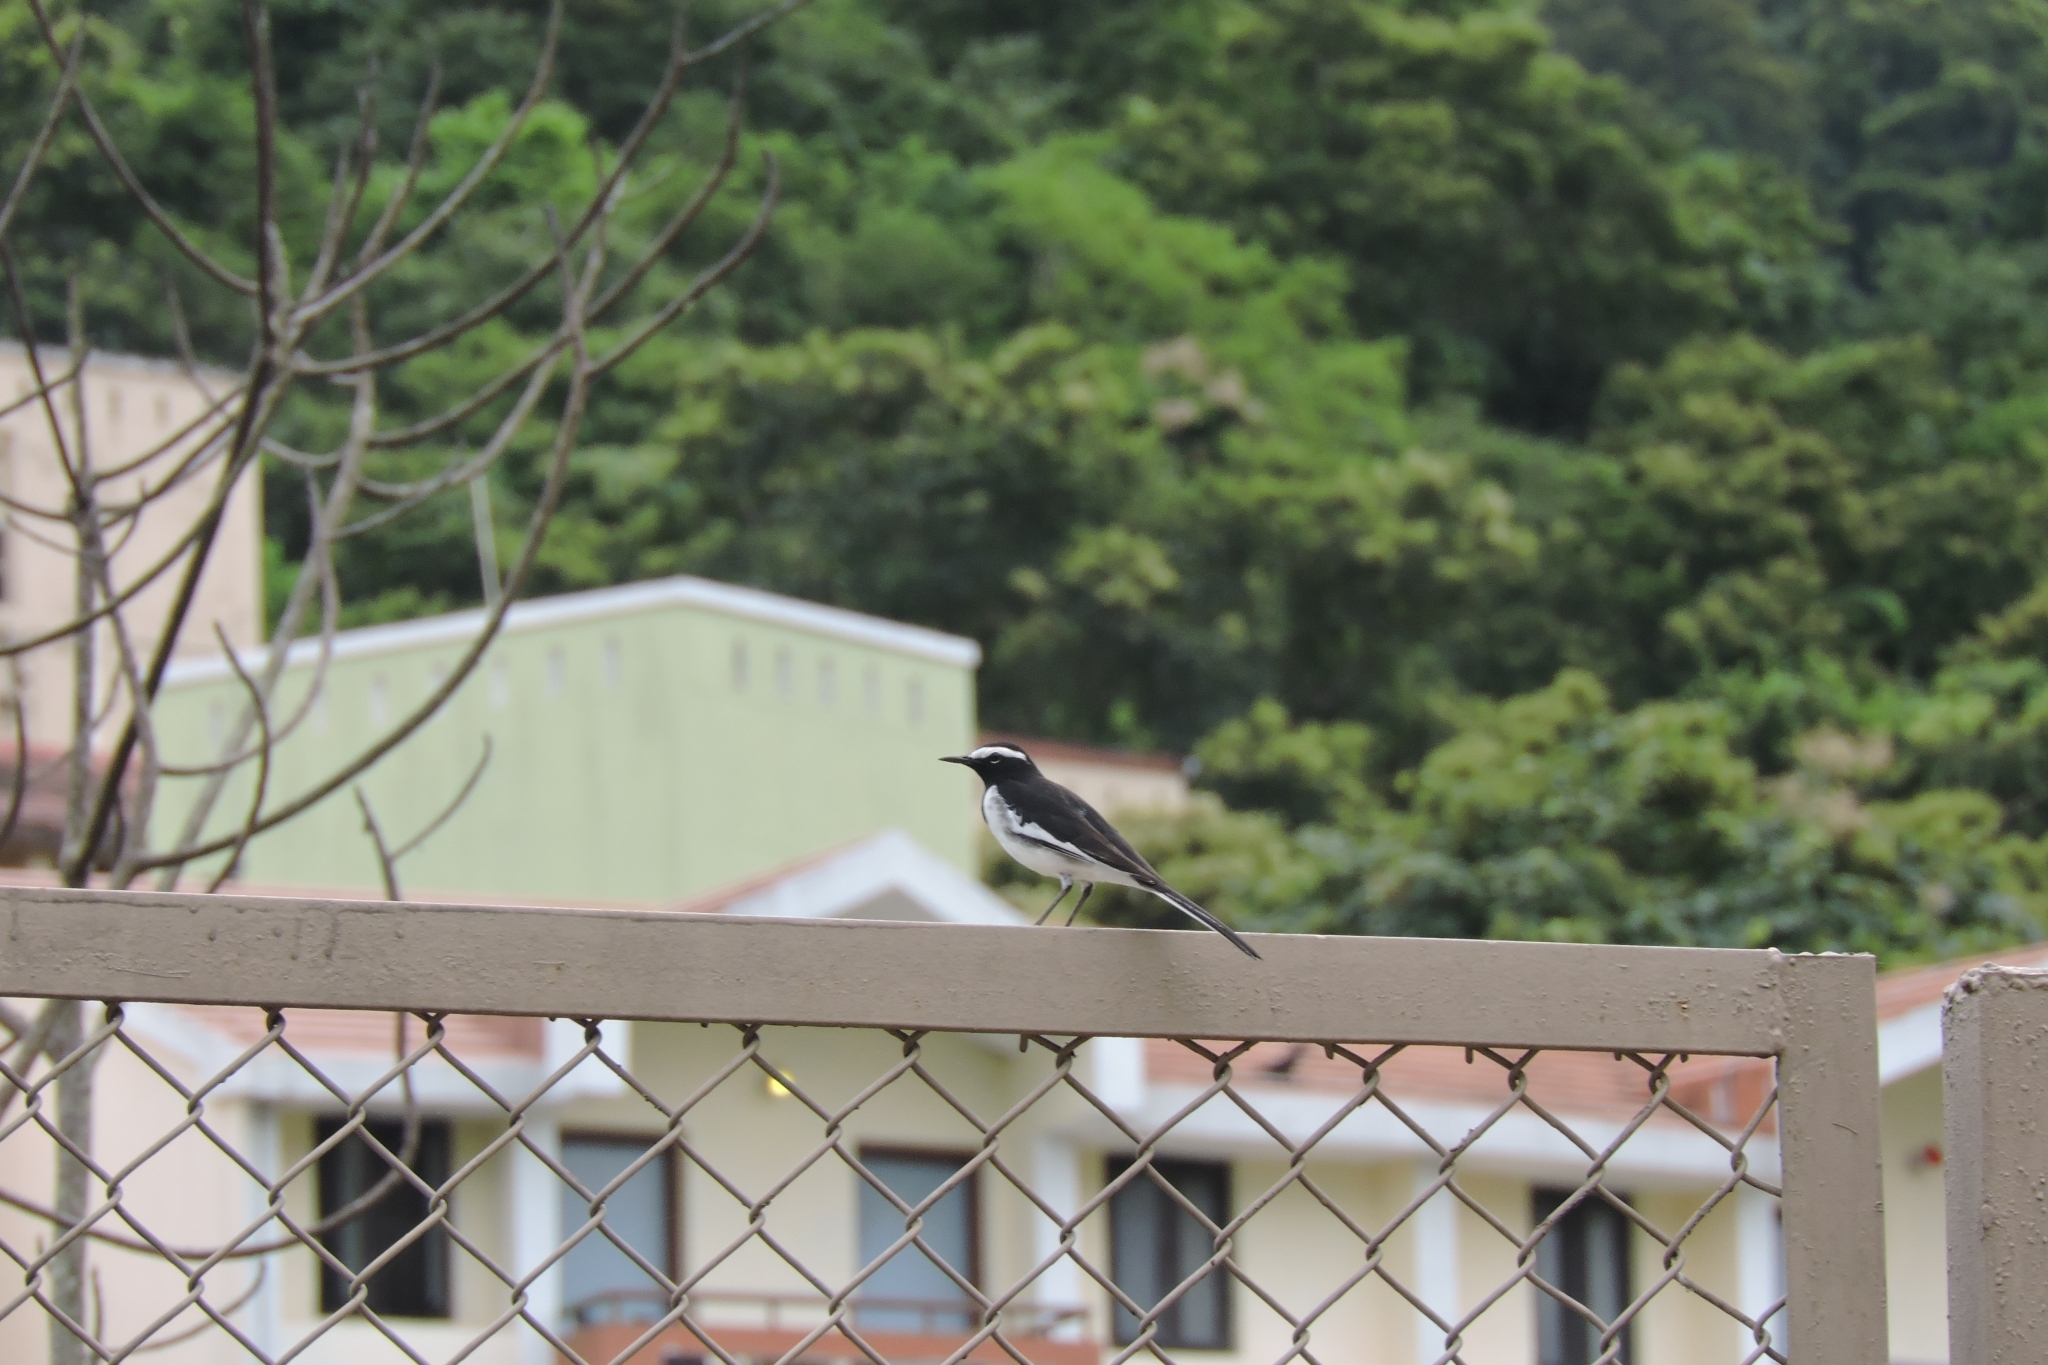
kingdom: Animalia
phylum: Chordata
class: Aves
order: Passeriformes
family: Motacillidae
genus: Motacilla
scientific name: Motacilla maderaspatensis
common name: White-browed wagtail
